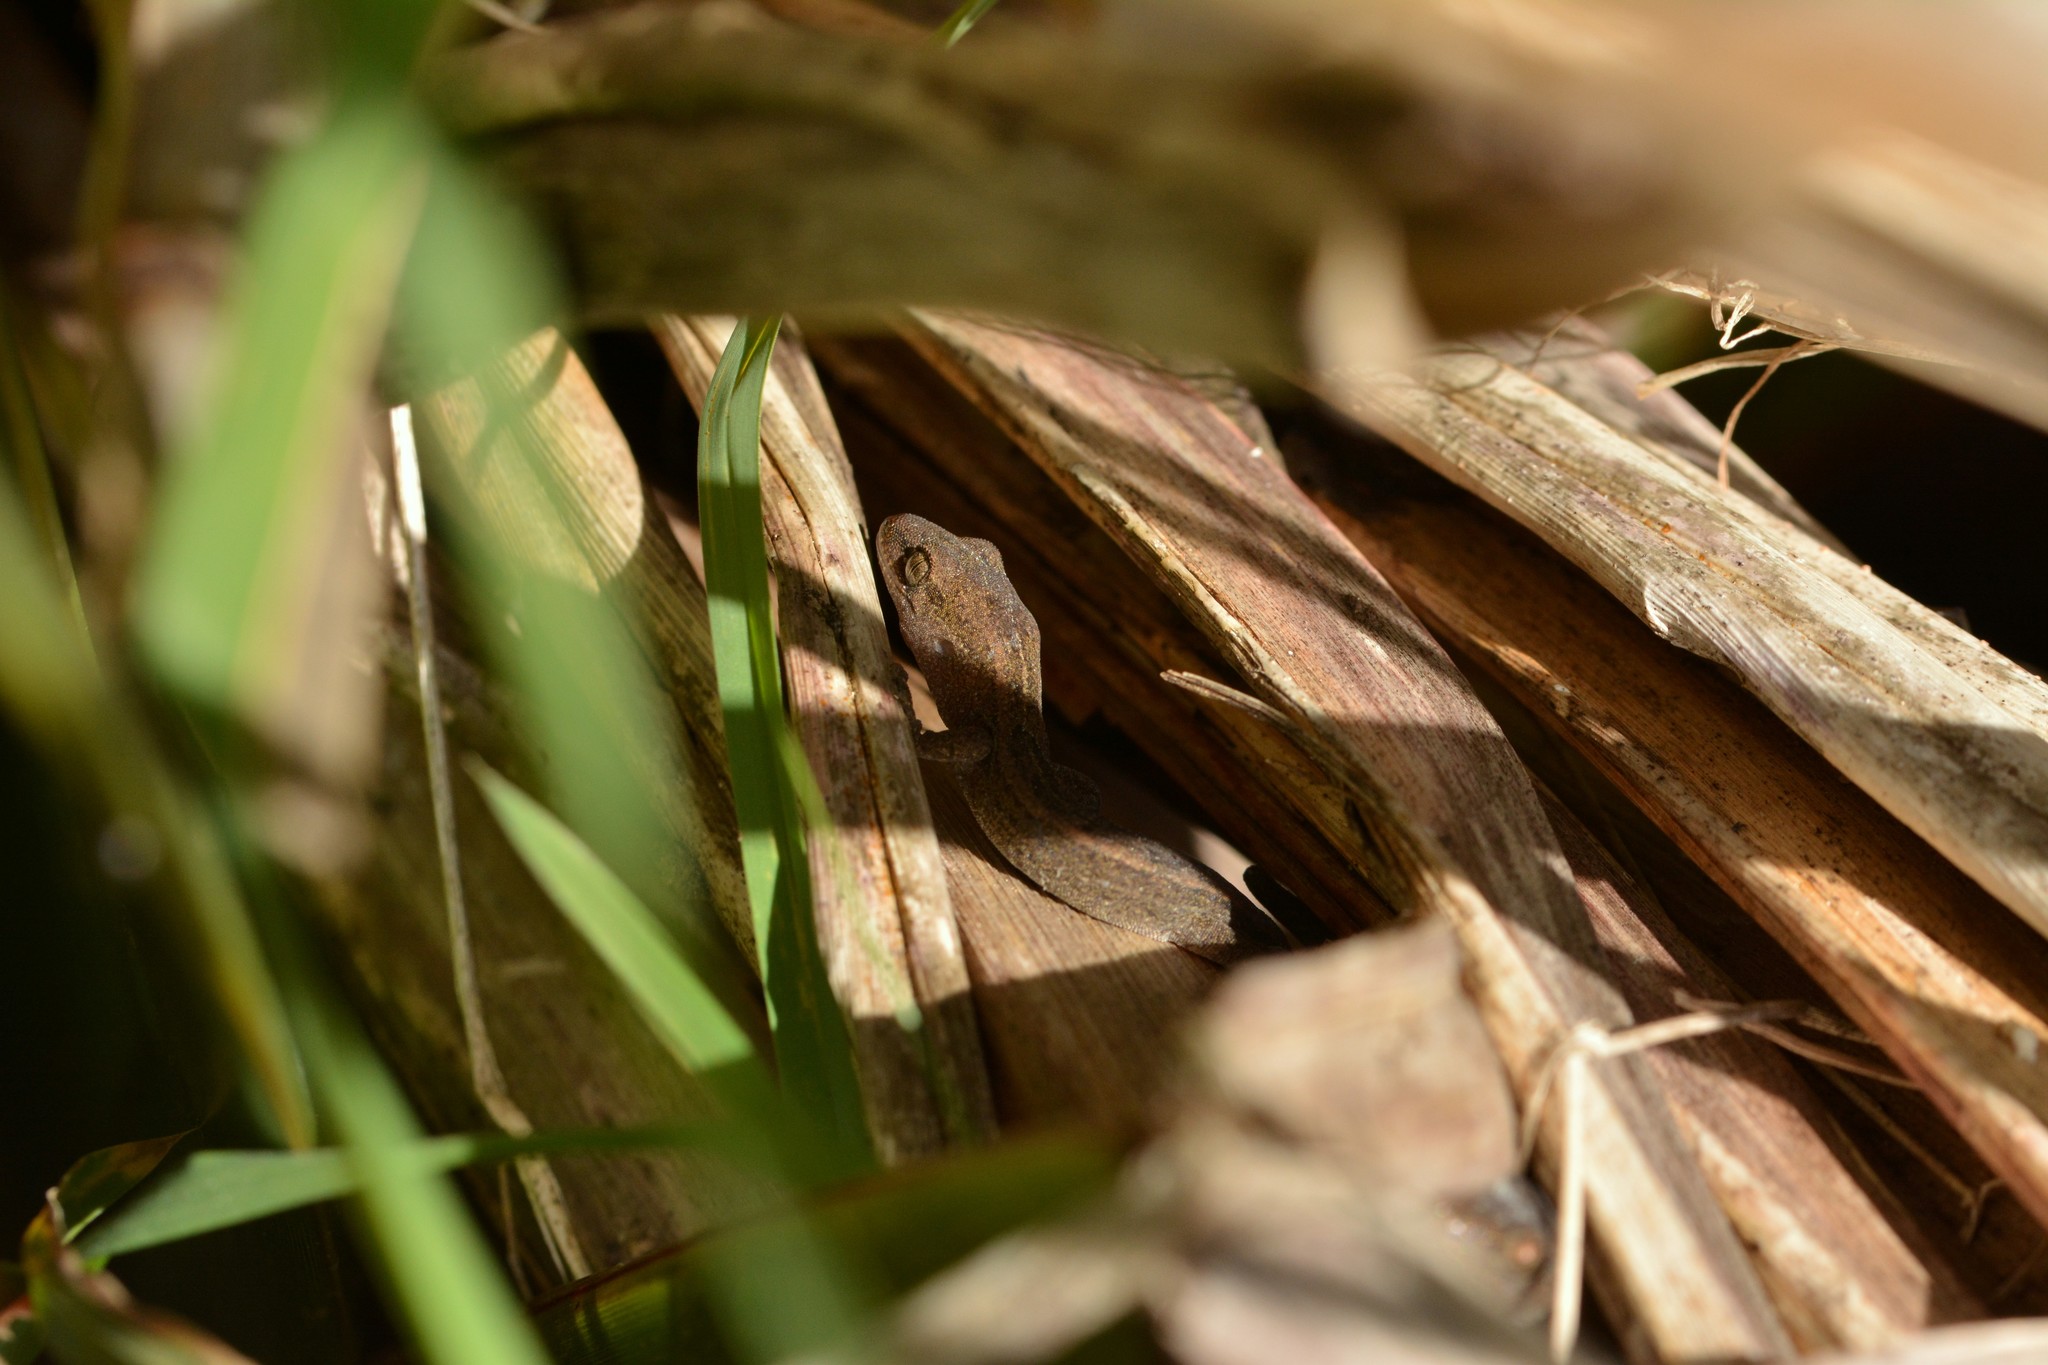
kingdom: Animalia
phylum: Chordata
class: Squamata
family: Diplodactylidae
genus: Woodworthia
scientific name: Woodworthia maculata
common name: Raukawa gecko
